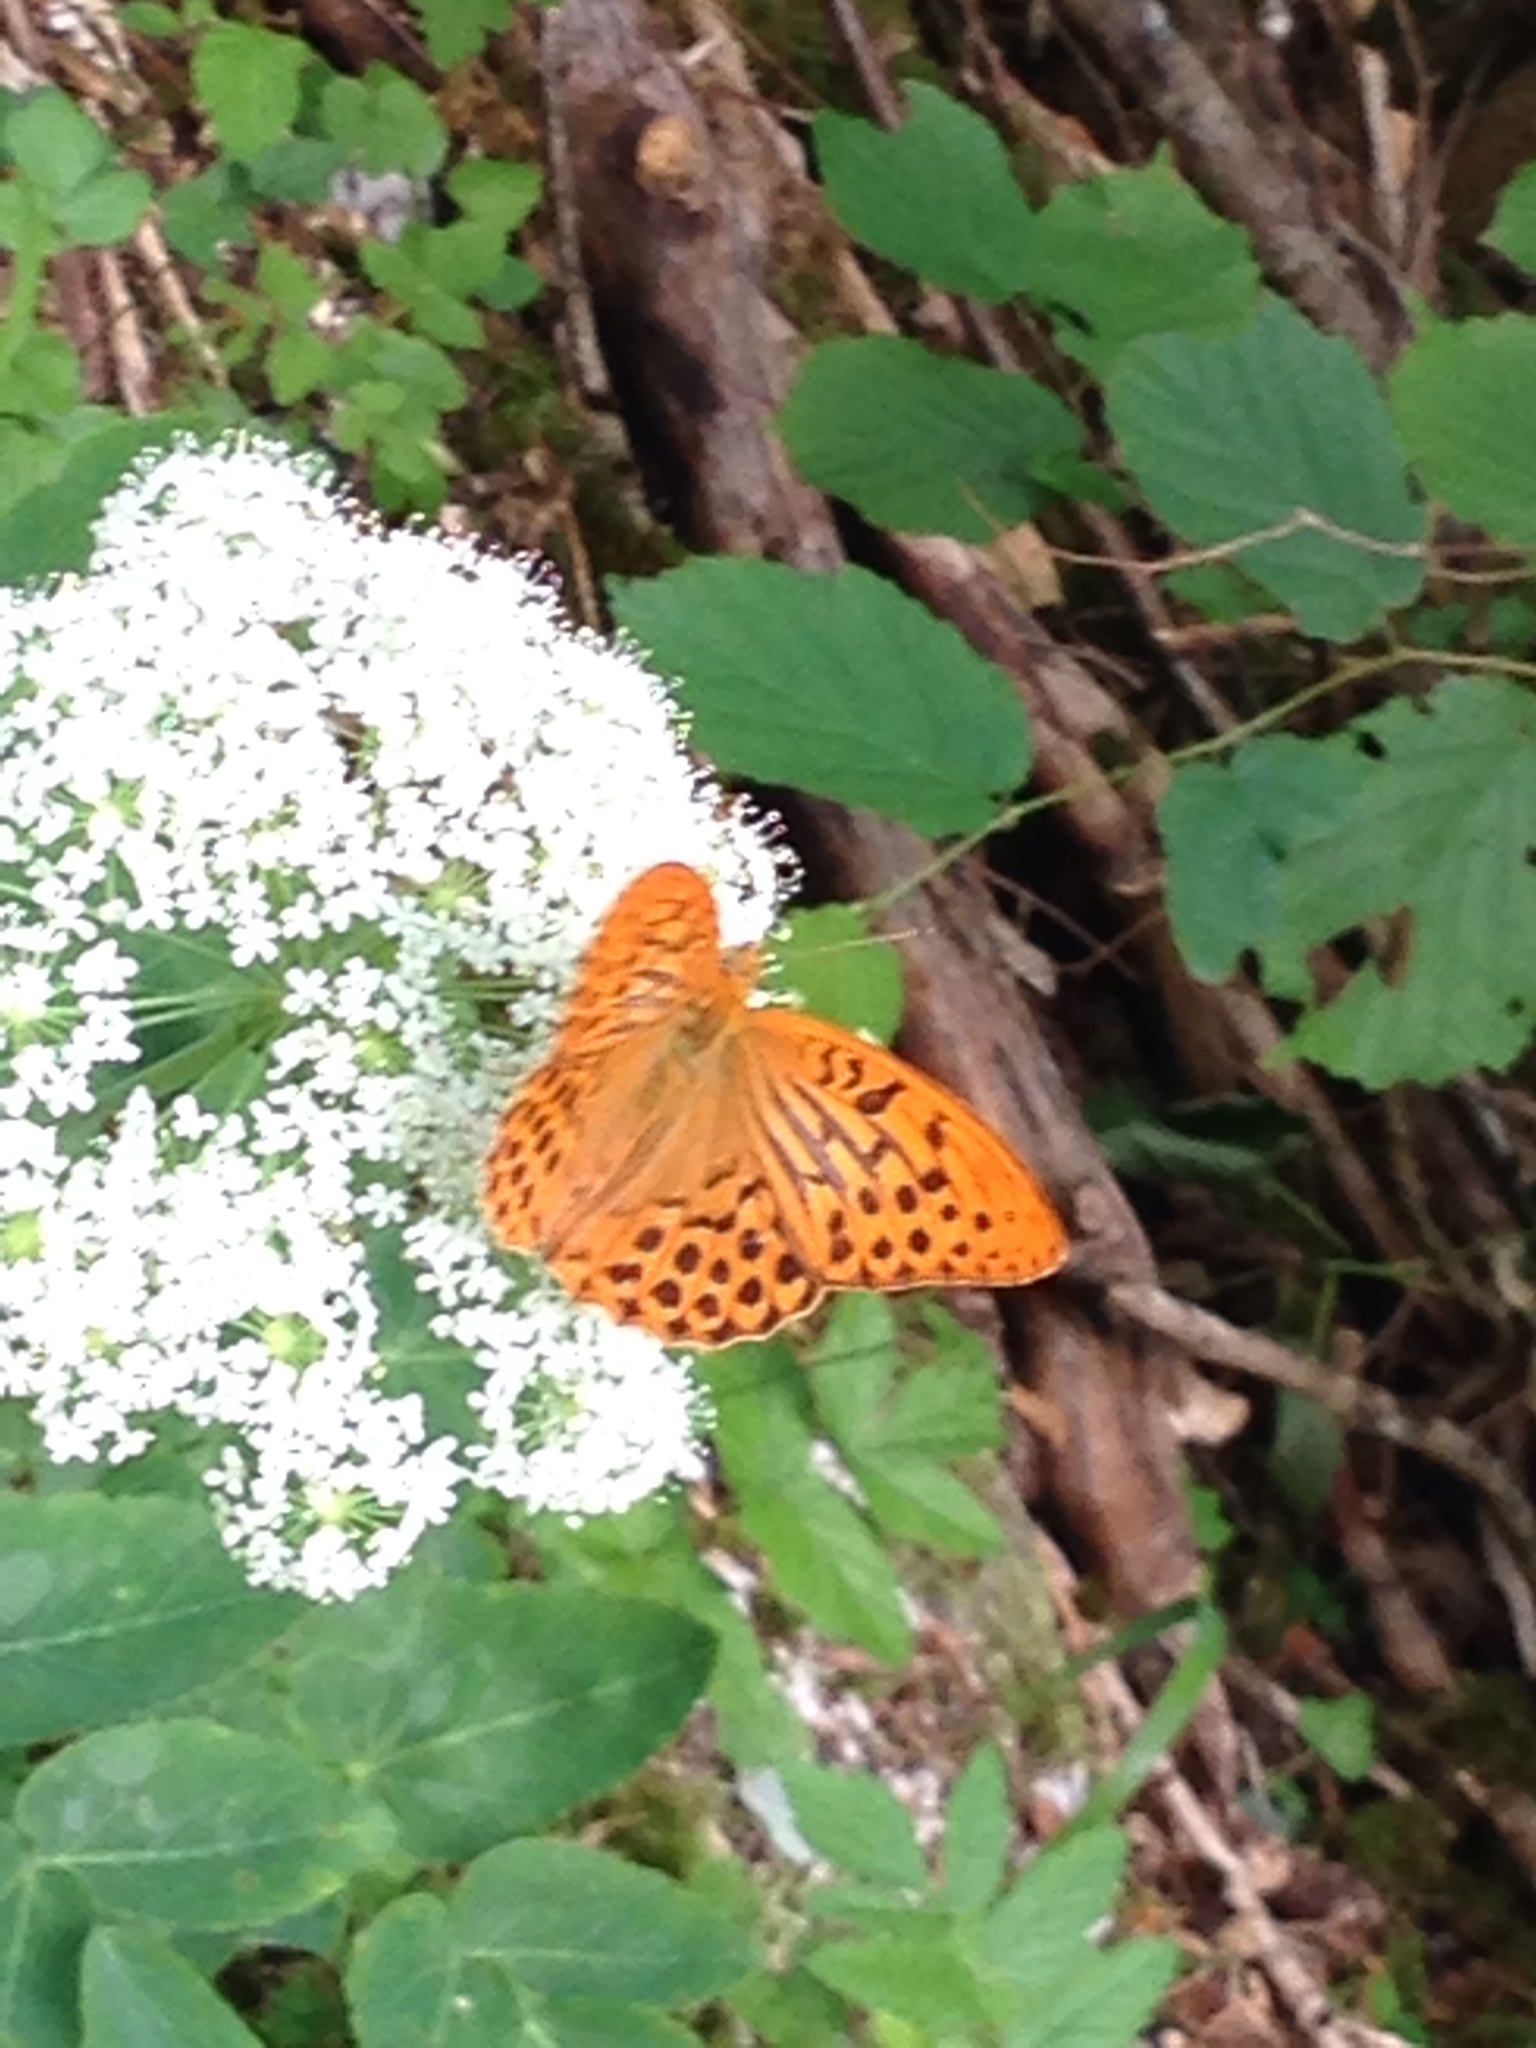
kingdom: Animalia
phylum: Arthropoda
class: Insecta
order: Lepidoptera
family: Nymphalidae
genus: Argynnis
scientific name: Argynnis paphia
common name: Silver-washed fritillary
